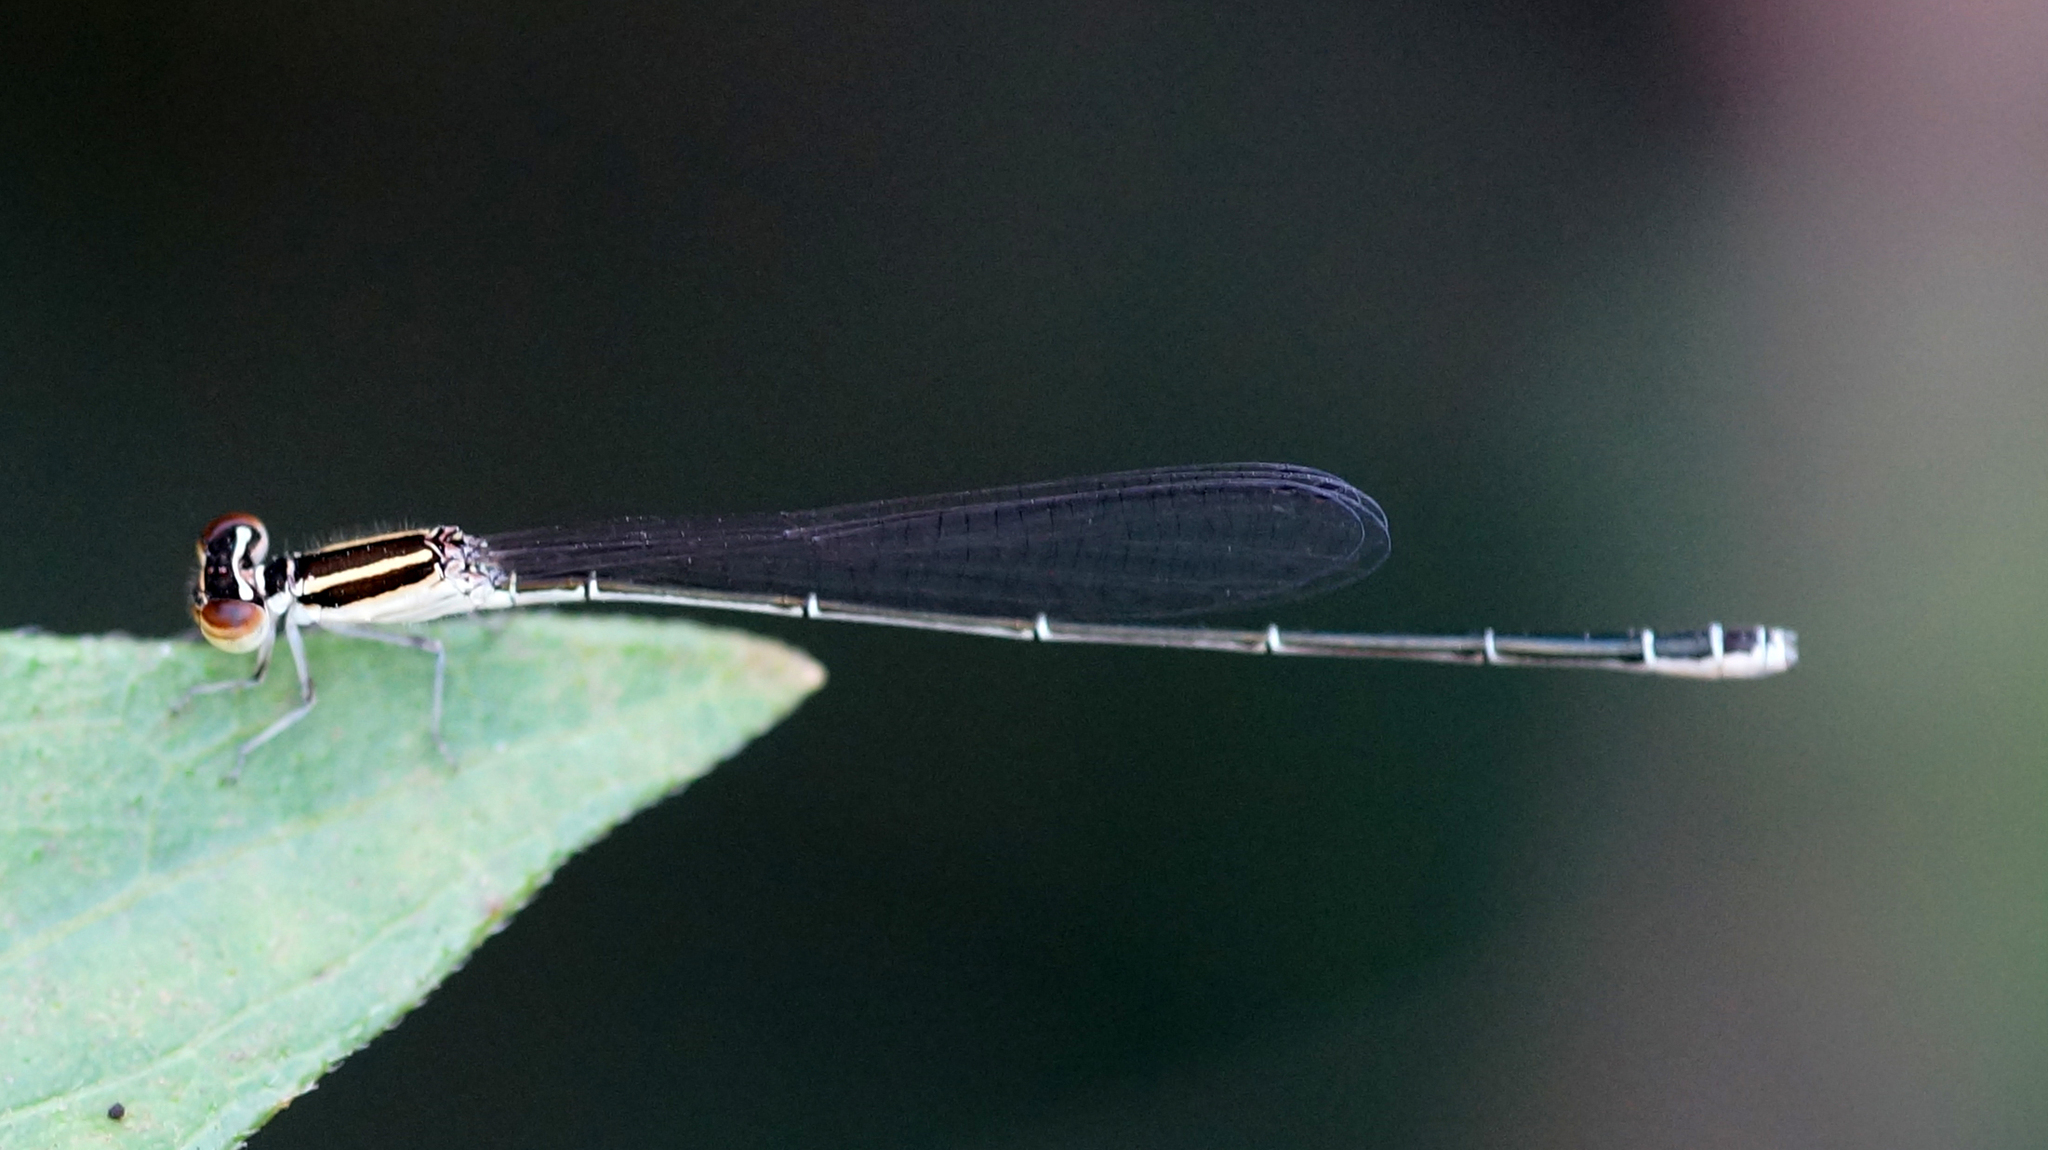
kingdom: Animalia
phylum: Arthropoda
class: Insecta
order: Odonata
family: Coenagrionidae
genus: Aciagrion
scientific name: Aciagrion borneense
